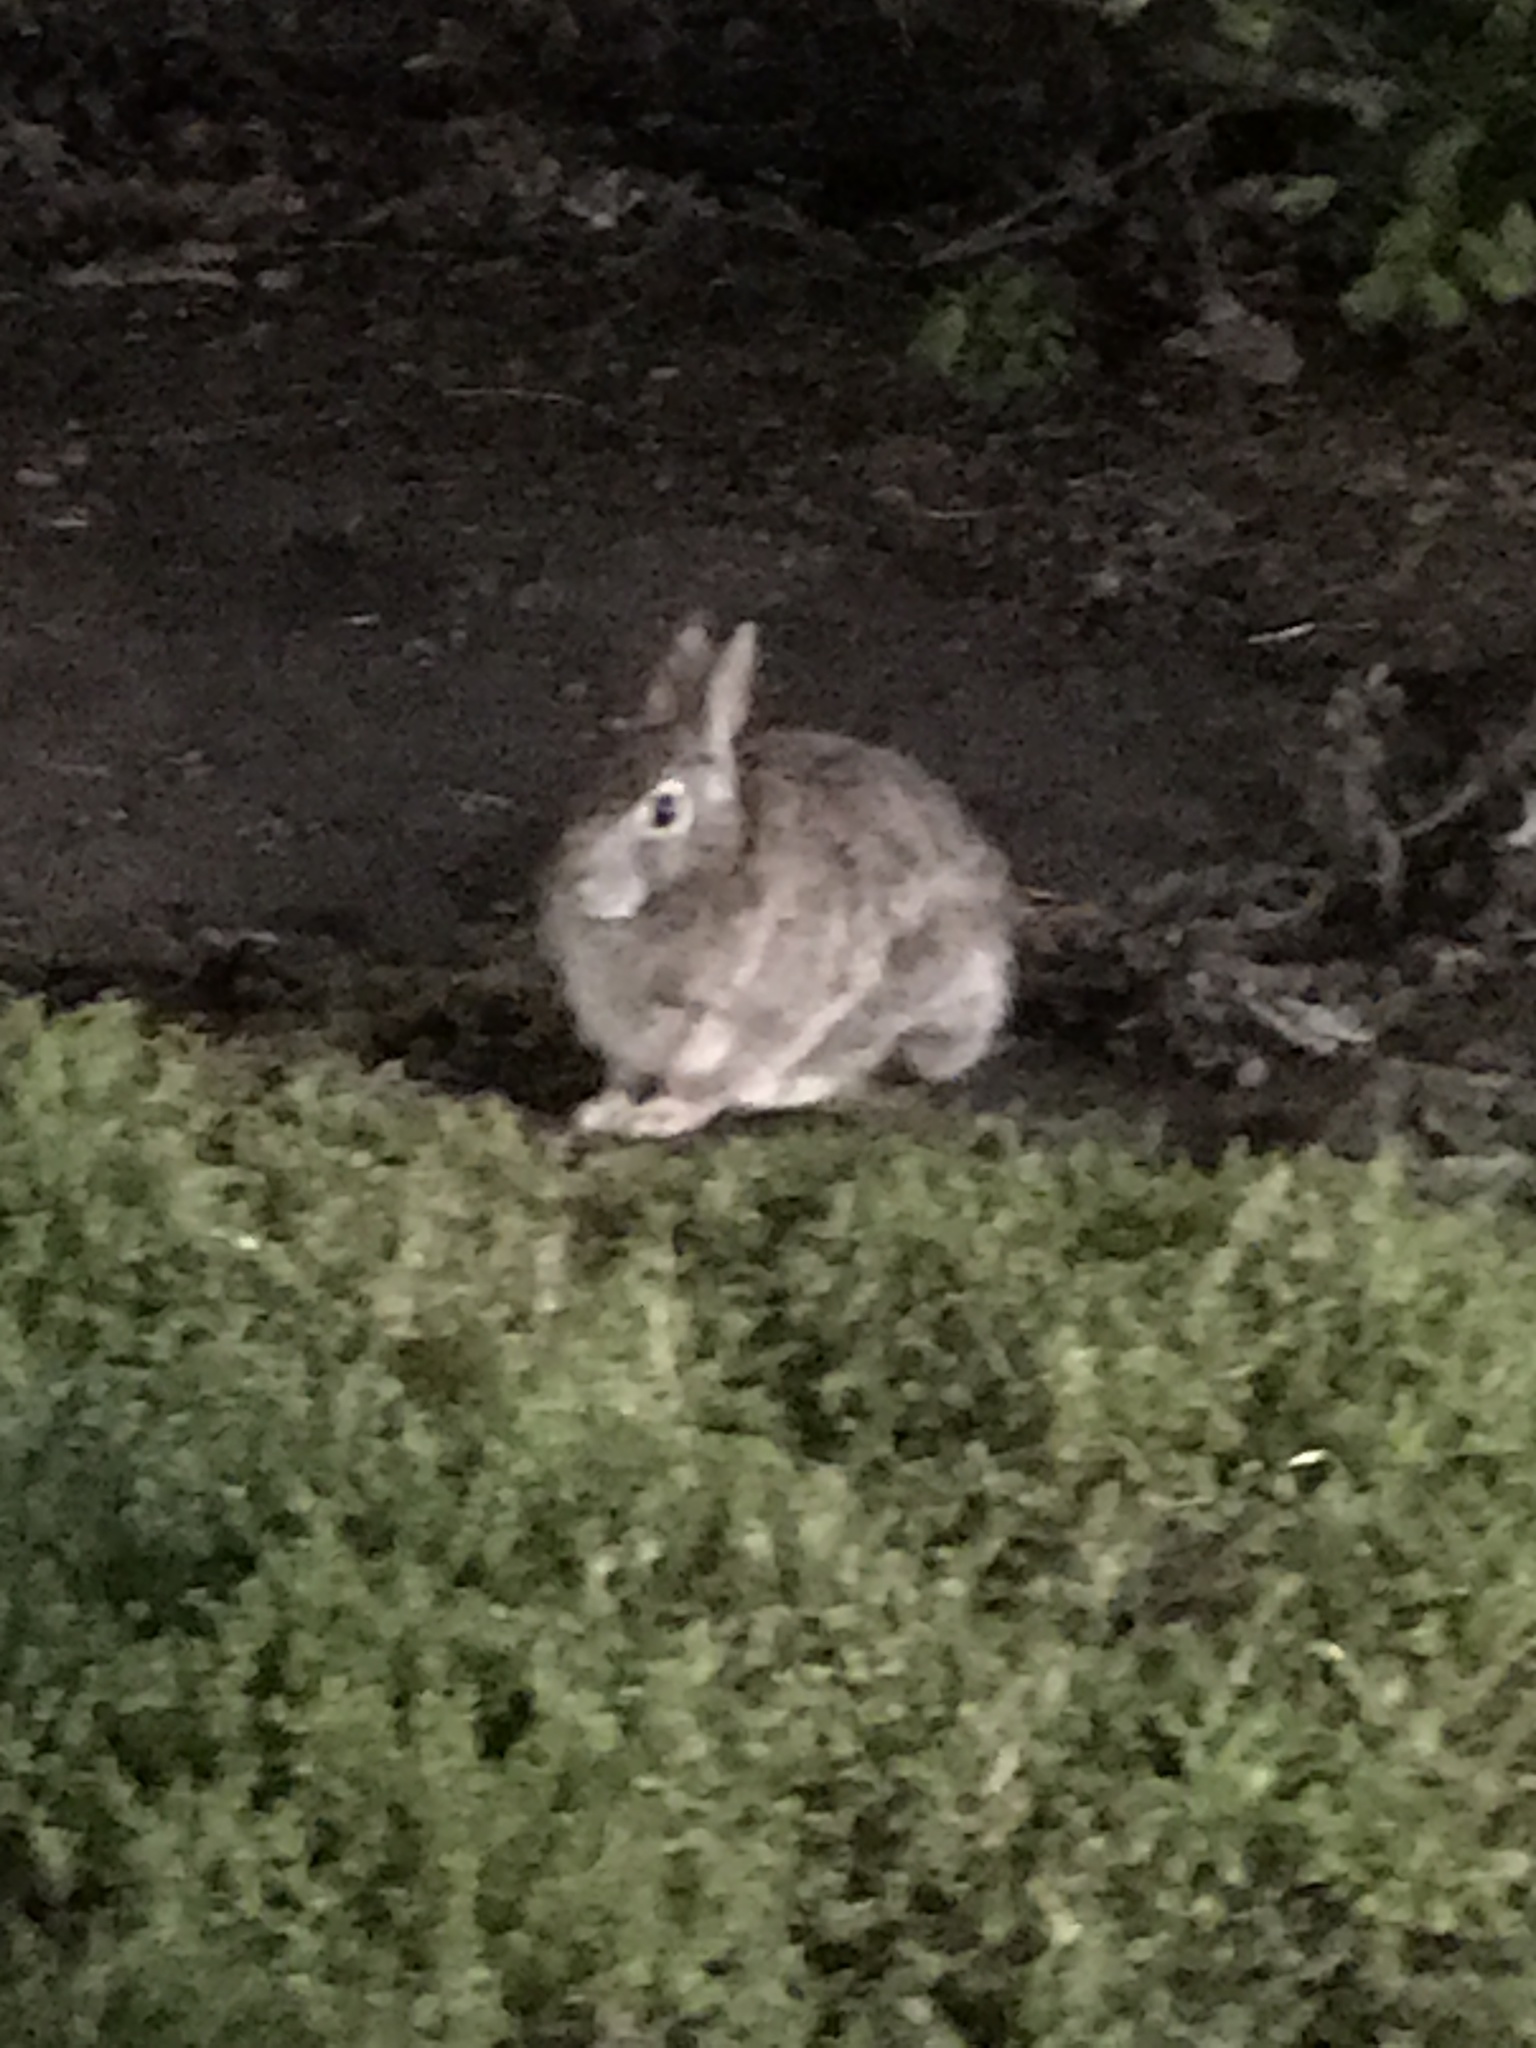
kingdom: Animalia
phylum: Chordata
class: Mammalia
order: Lagomorpha
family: Leporidae
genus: Sylvilagus
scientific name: Sylvilagus floridanus
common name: Eastern cottontail
